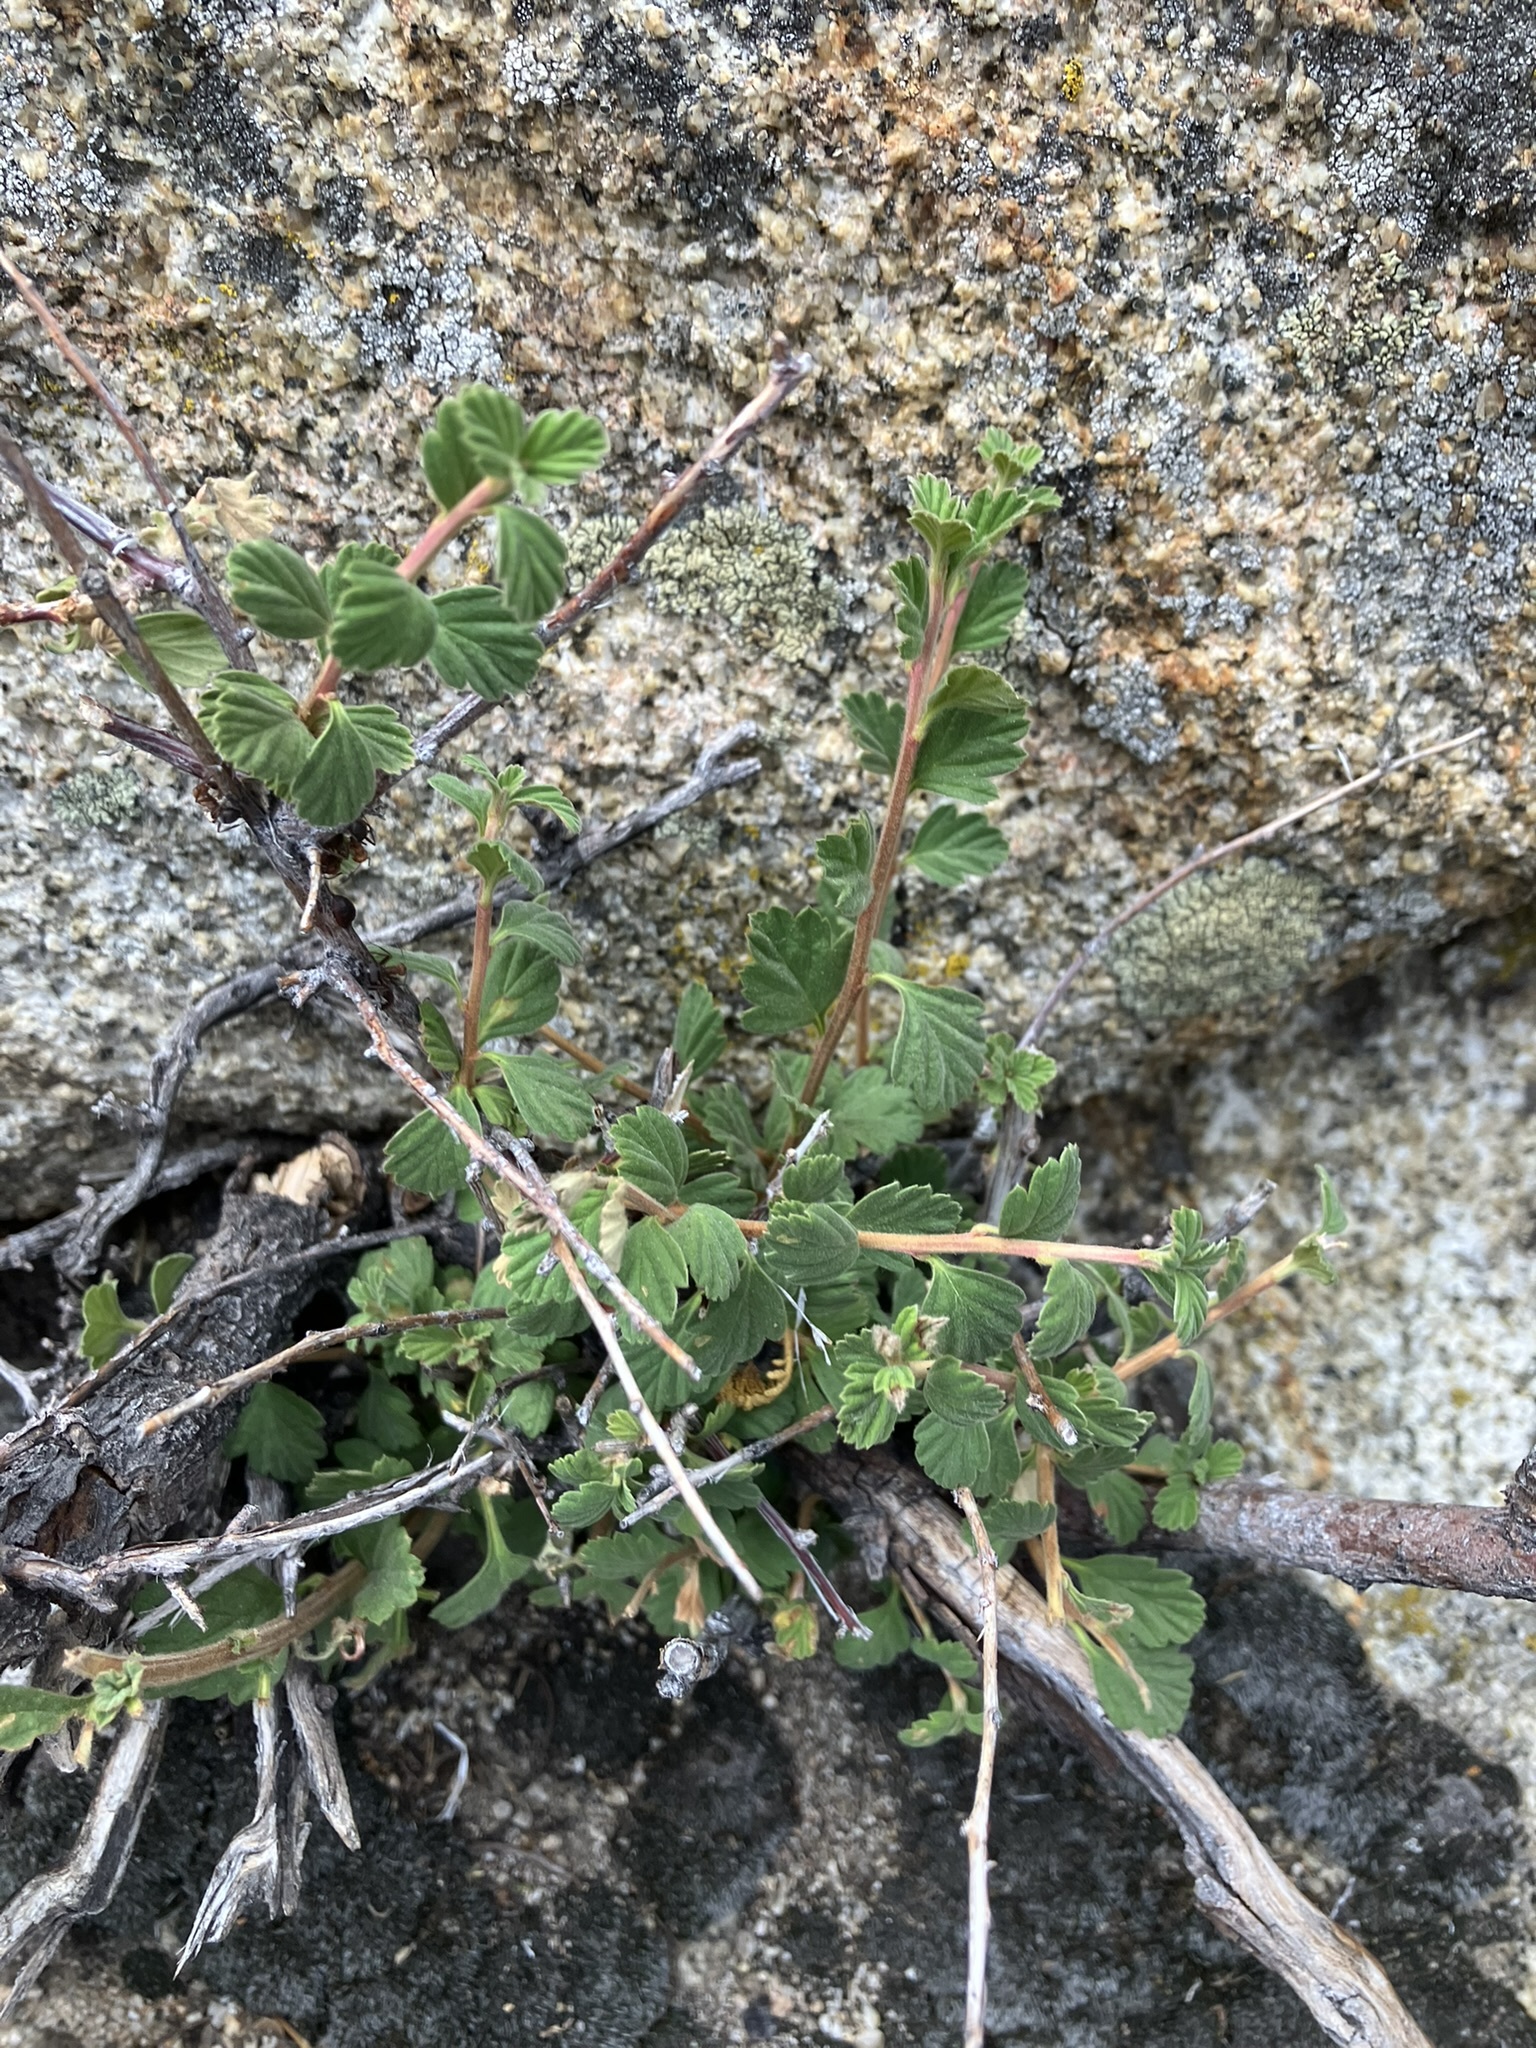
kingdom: Plantae
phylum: Tracheophyta
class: Magnoliopsida
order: Rosales
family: Rosaceae
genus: Holodiscus
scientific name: Holodiscus discolor
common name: Oceanspray
